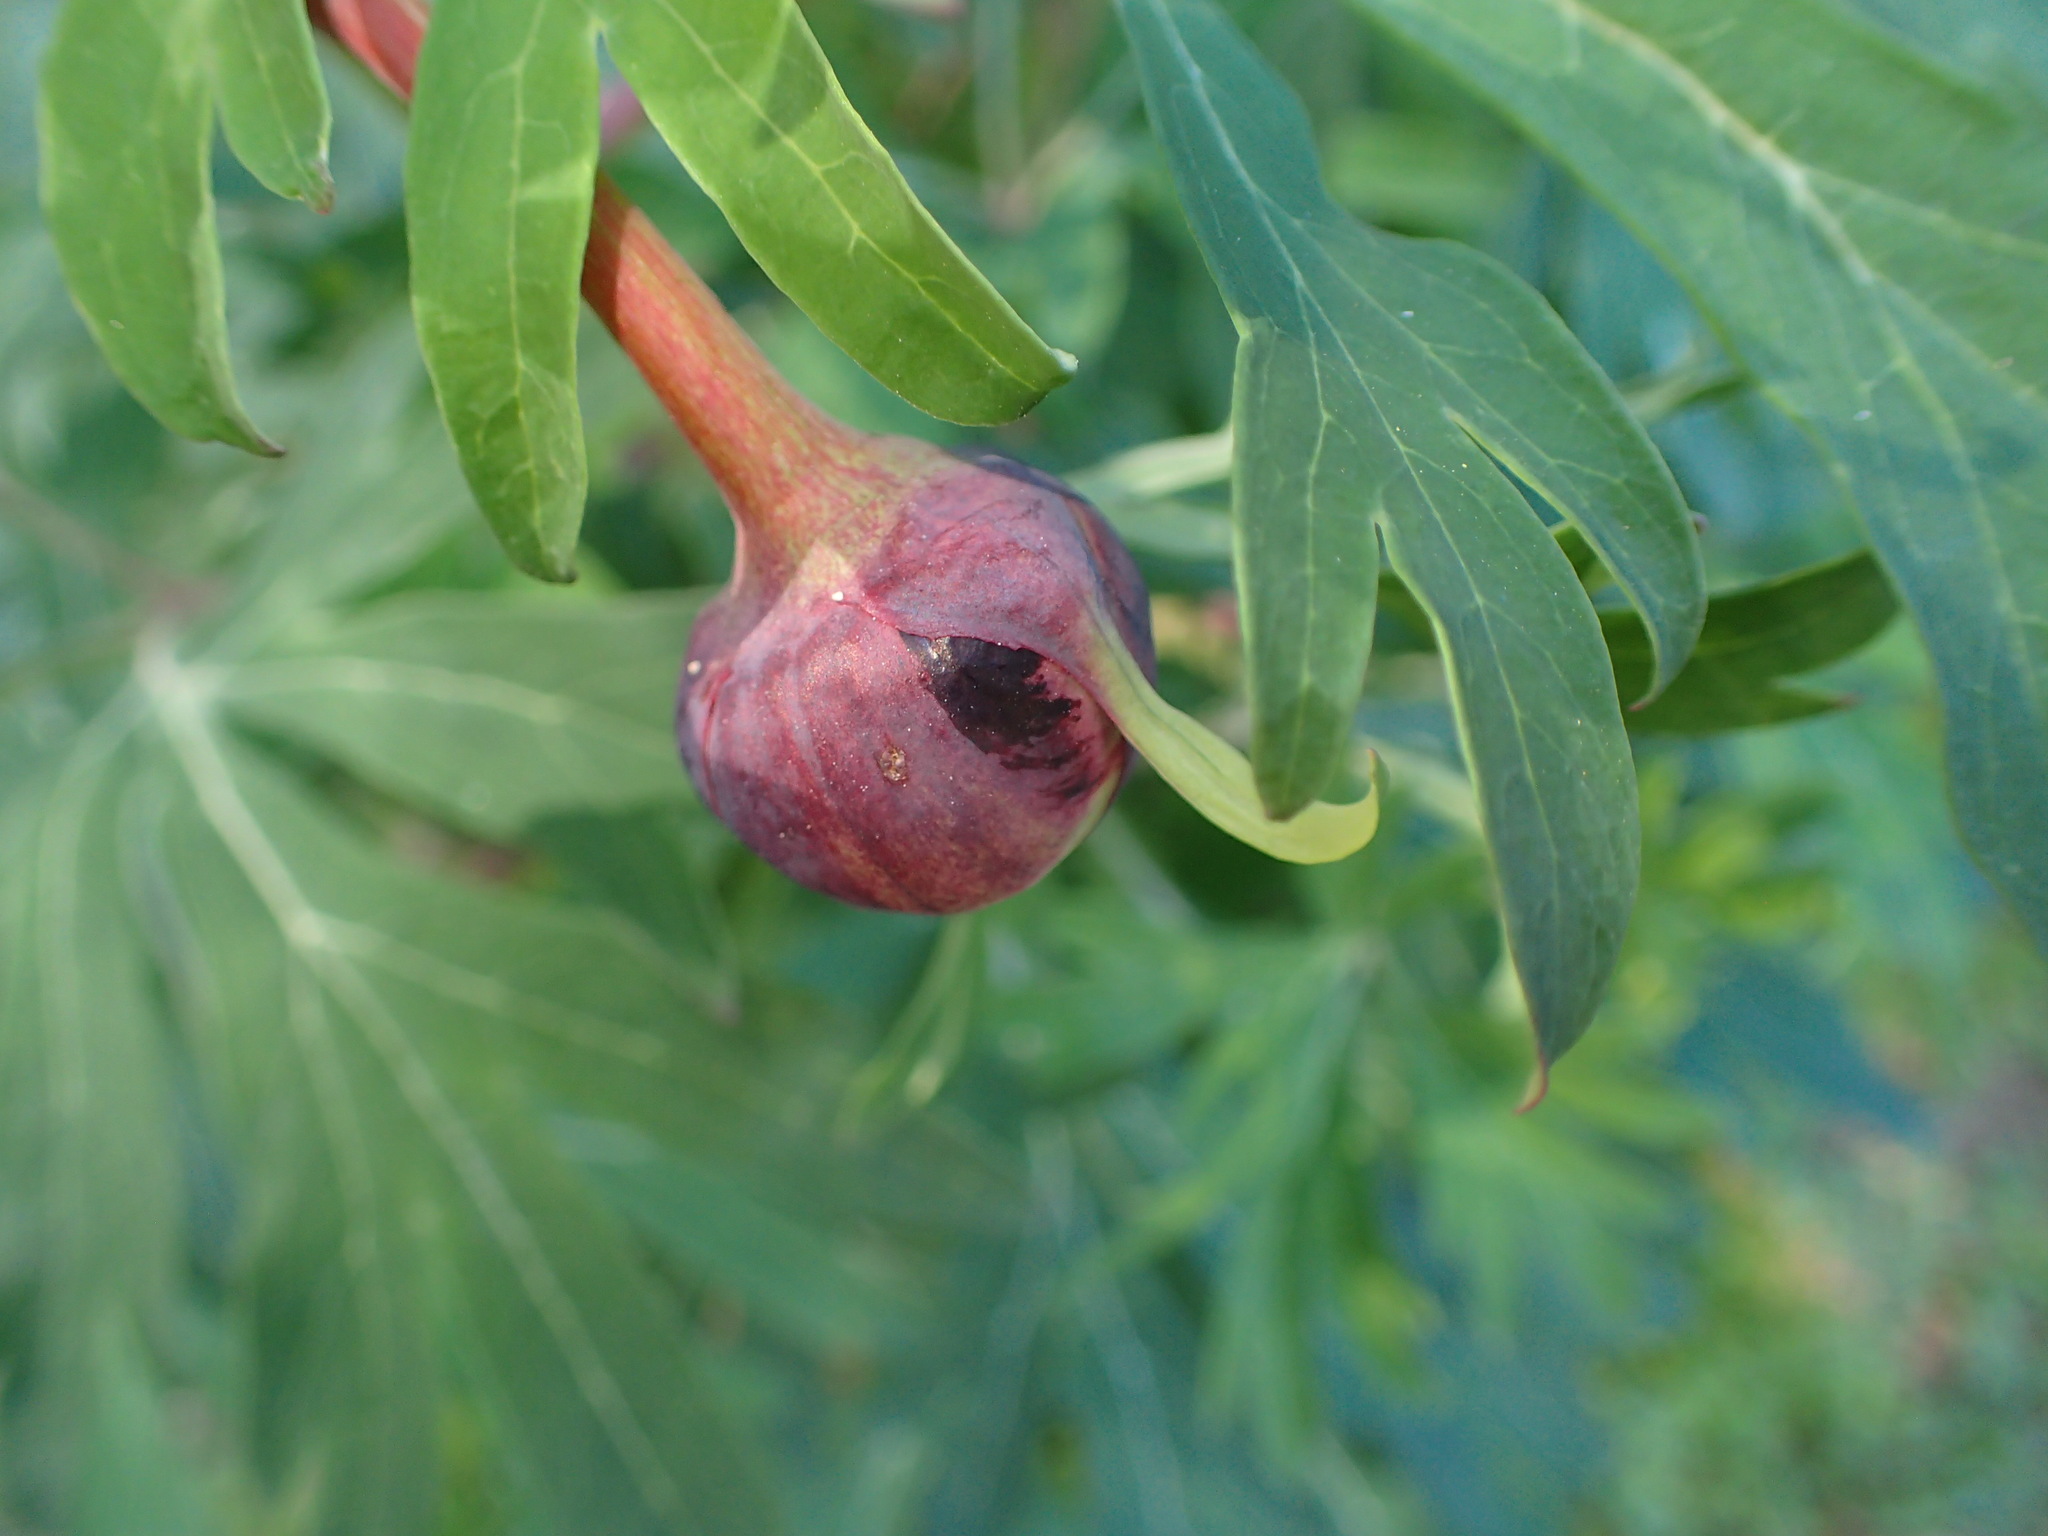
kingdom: Plantae
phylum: Tracheophyta
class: Magnoliopsida
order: Saxifragales
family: Paeoniaceae
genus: Paeonia
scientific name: Paeonia californica
